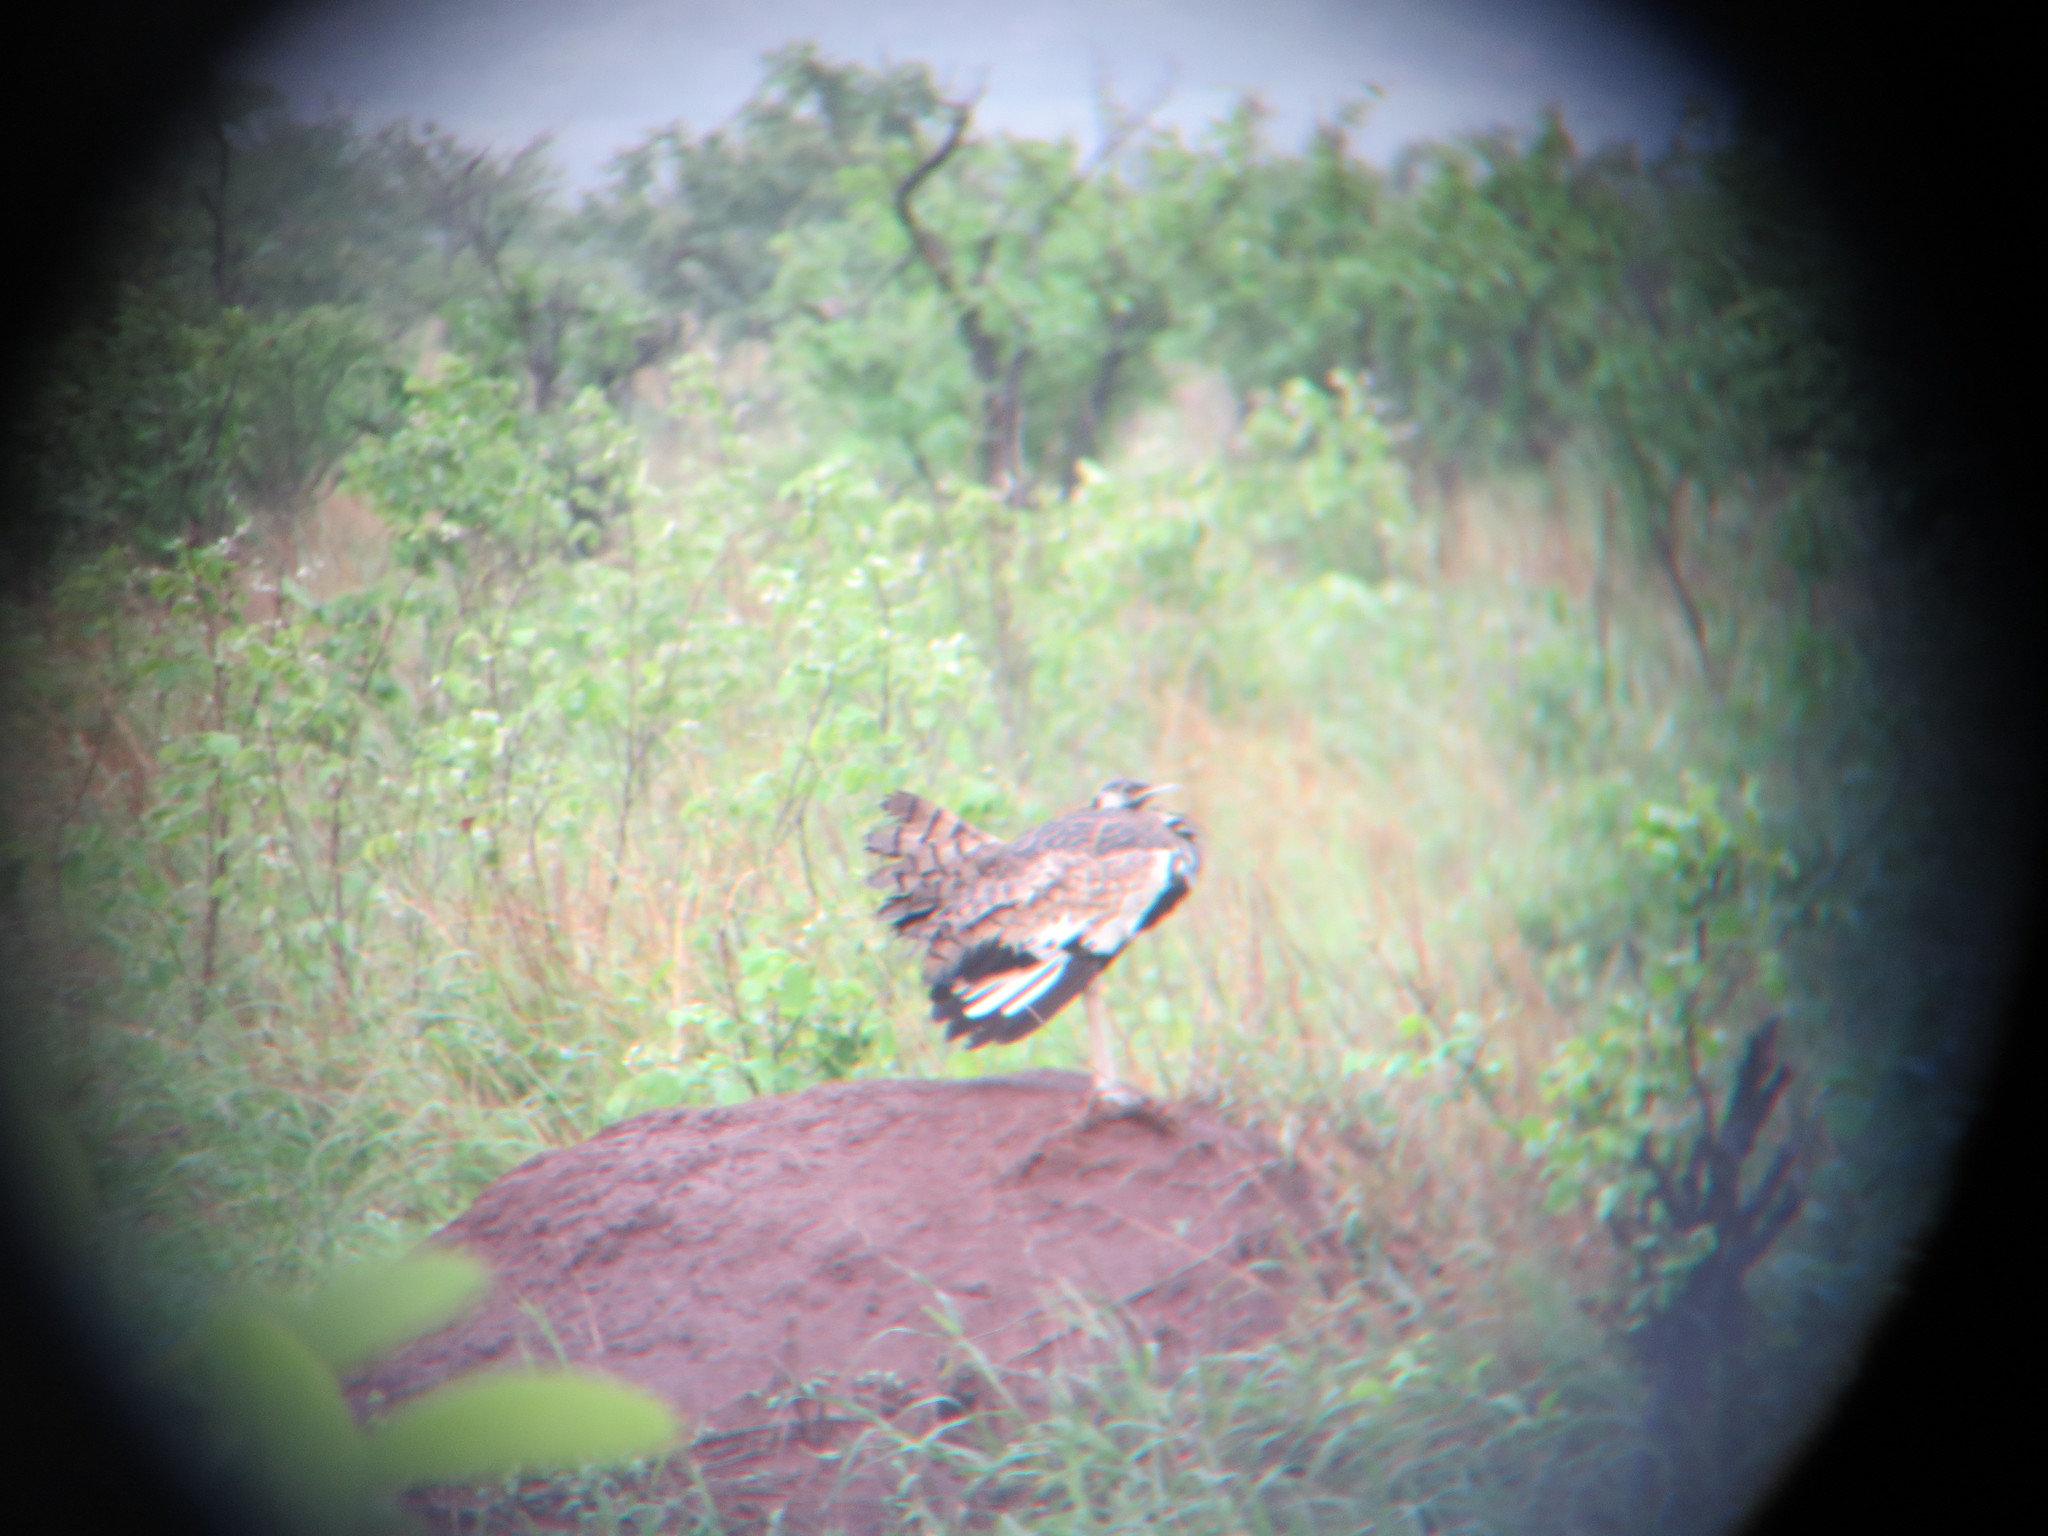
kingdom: Animalia
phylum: Chordata
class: Aves
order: Otidiformes
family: Otididae
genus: Lissotis
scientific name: Lissotis melanogaster
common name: Black-bellied bustard
